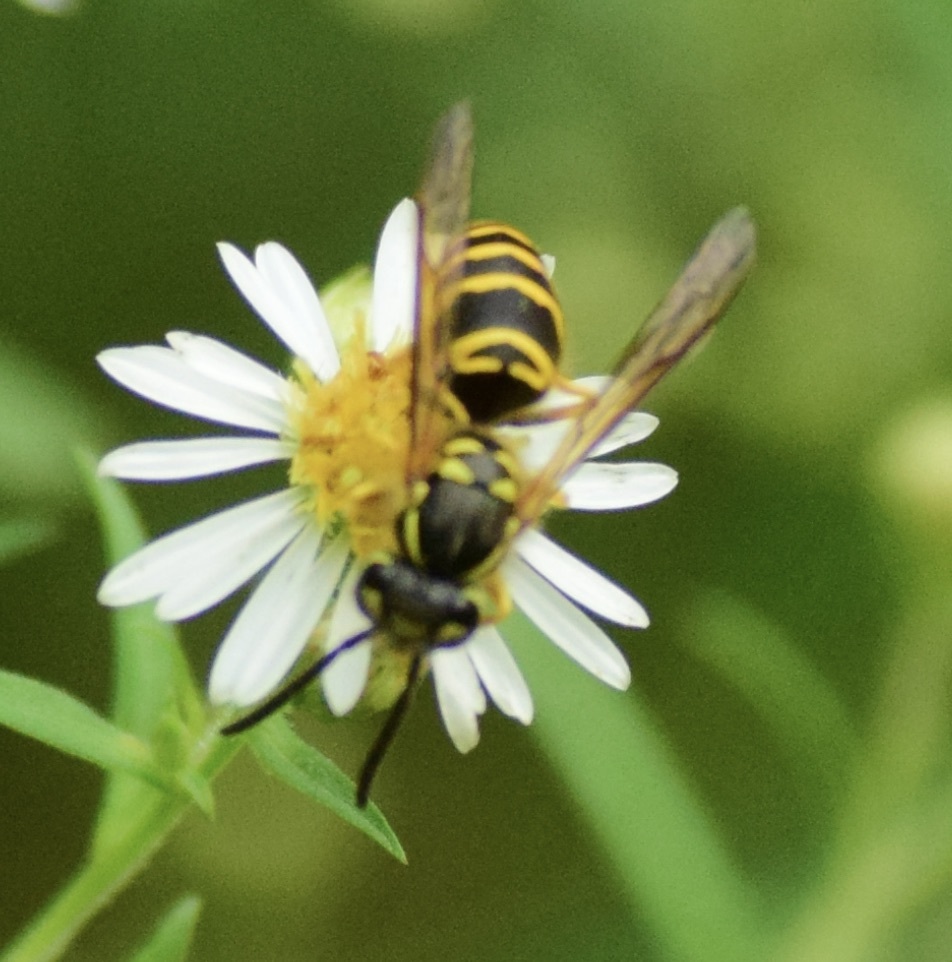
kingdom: Animalia
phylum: Arthropoda
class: Insecta
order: Hymenoptera
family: Vespidae
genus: Vespula
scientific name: Vespula maculifrons
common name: Eastern yellowjacket
